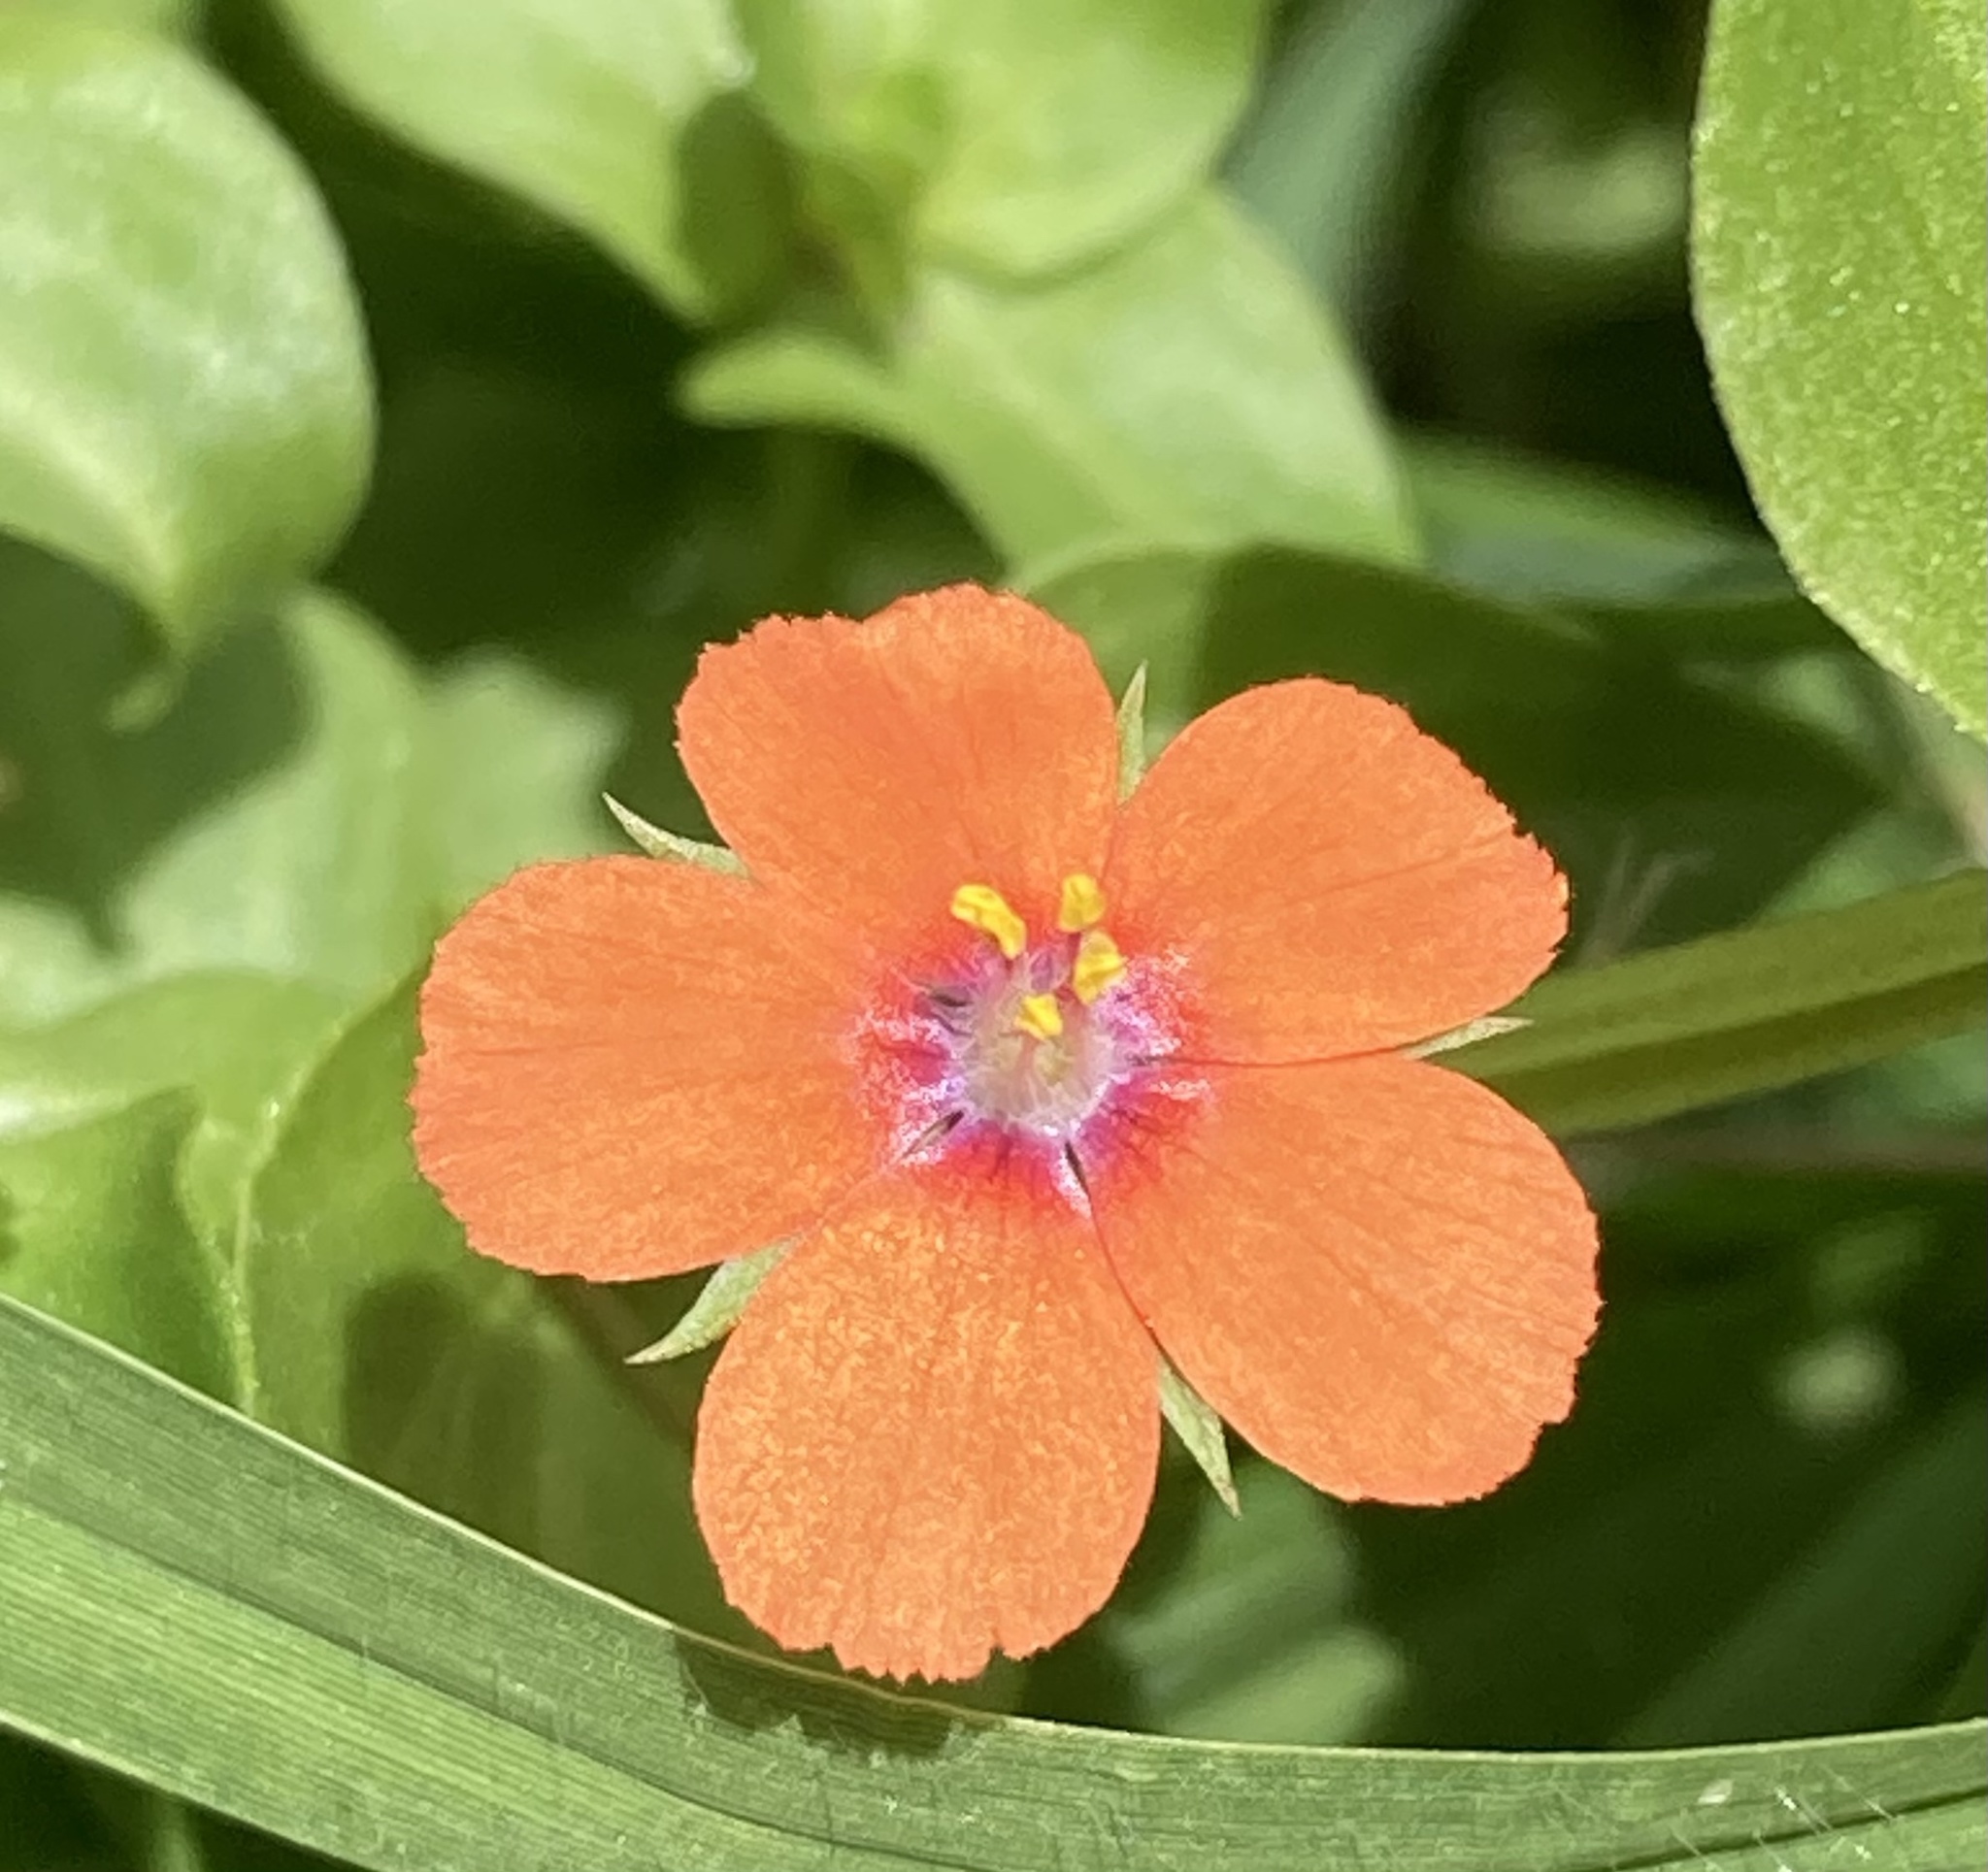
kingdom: Plantae
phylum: Tracheophyta
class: Magnoliopsida
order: Ericales
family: Primulaceae
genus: Lysimachia
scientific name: Lysimachia arvensis
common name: Scarlet pimpernel
